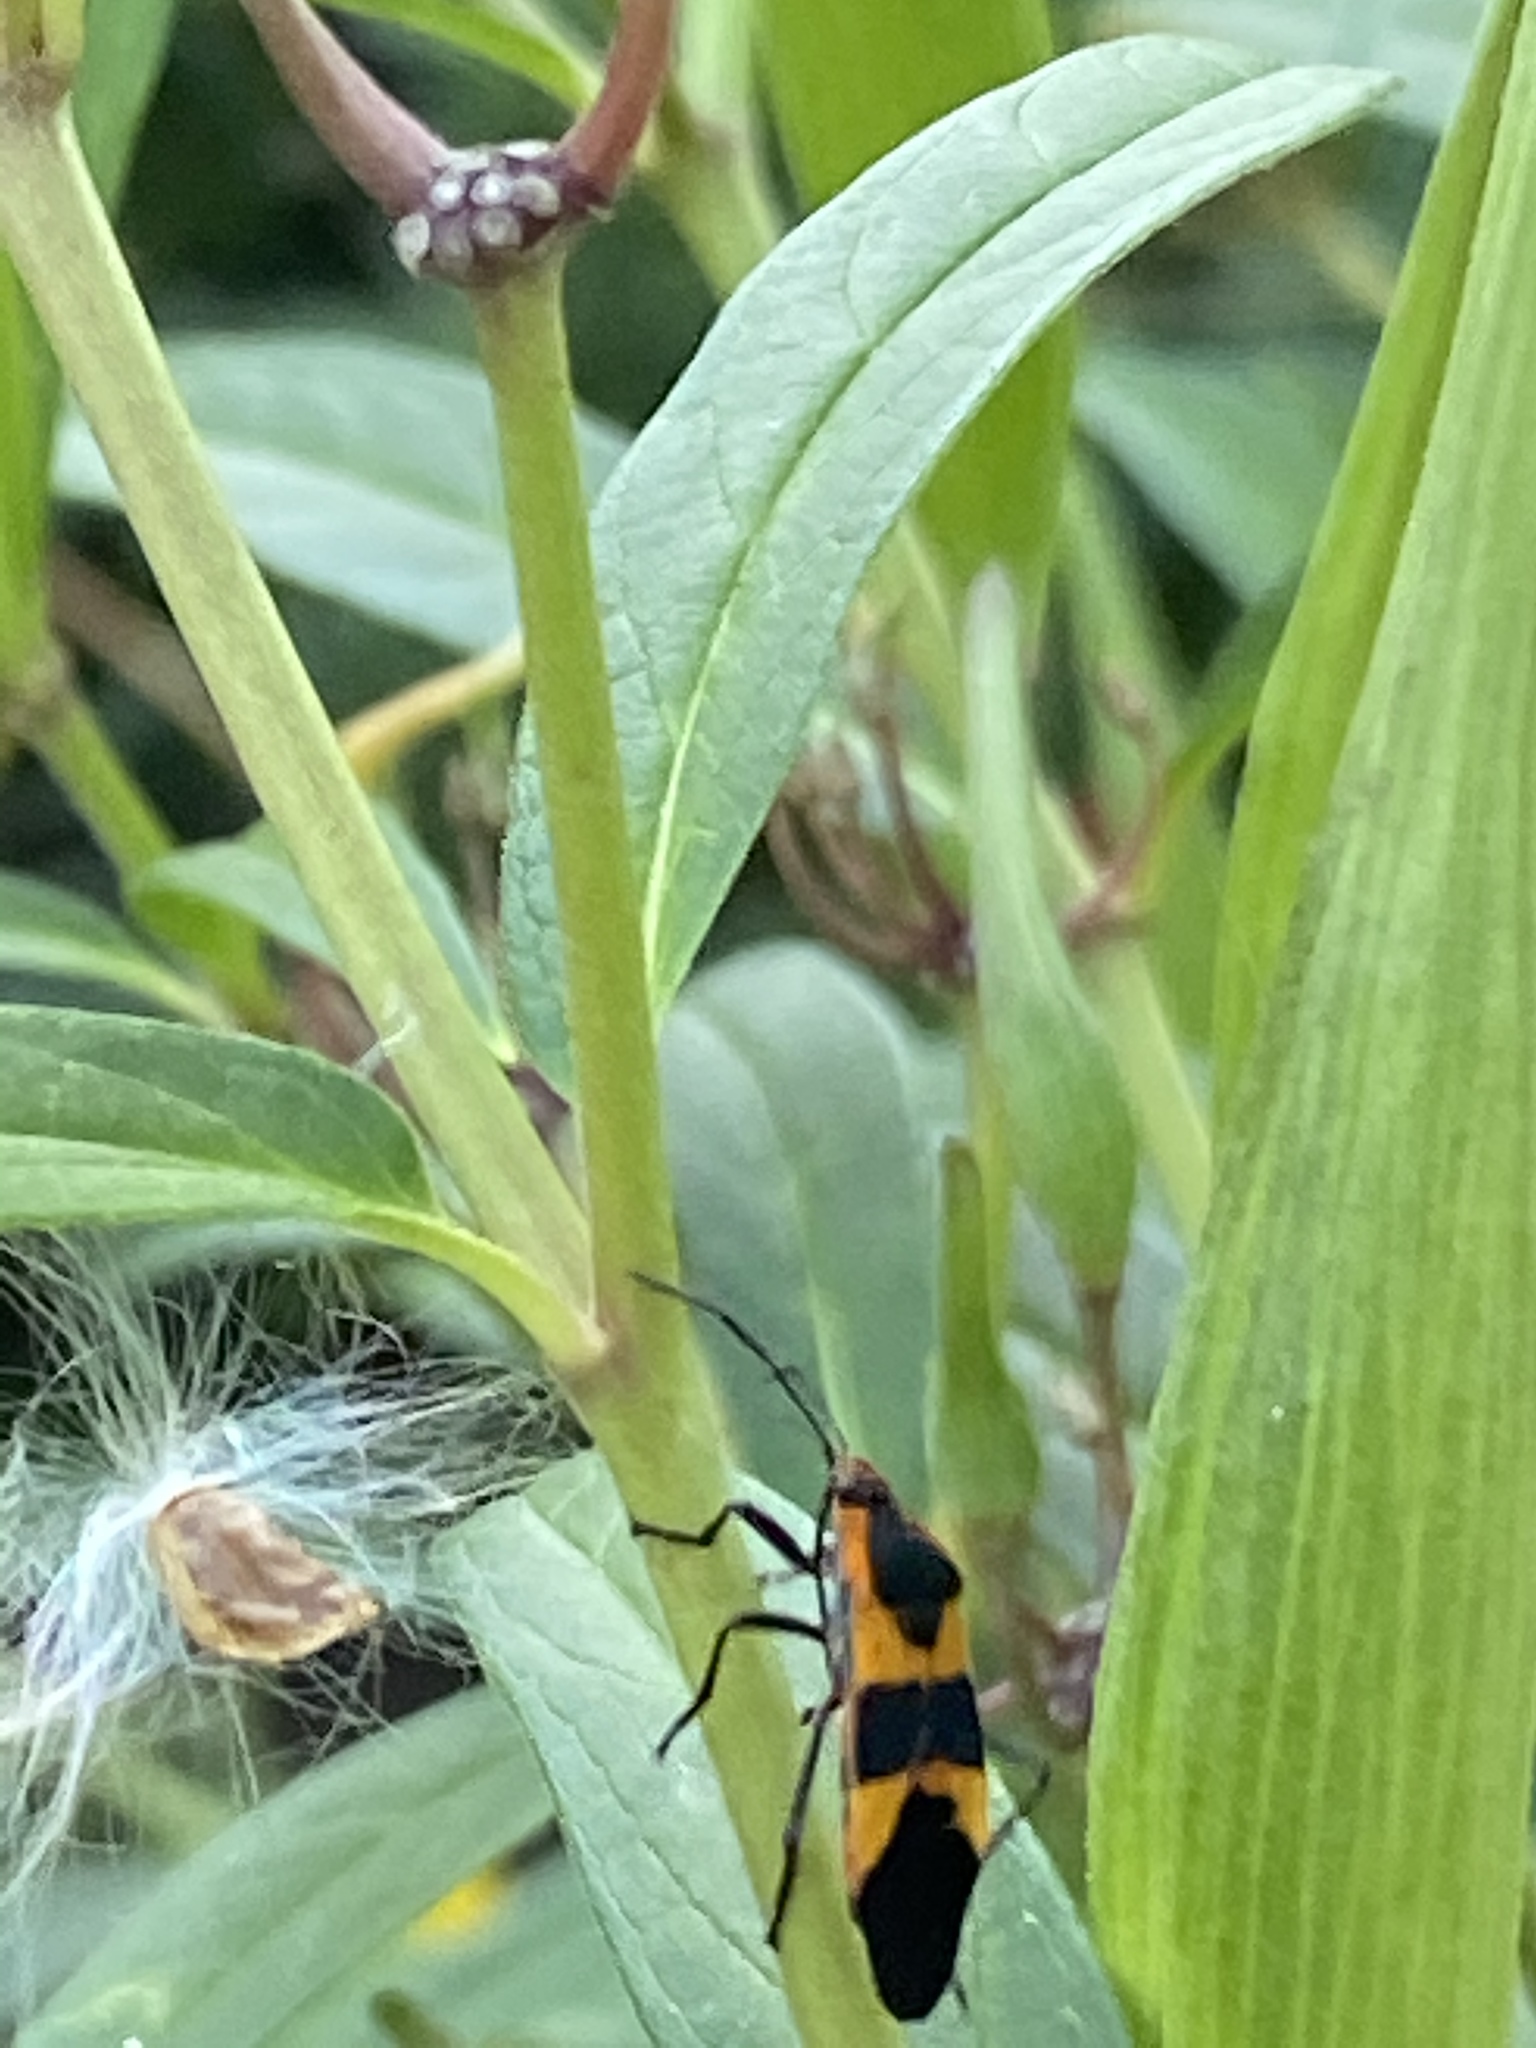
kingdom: Animalia
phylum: Arthropoda
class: Insecta
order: Hemiptera
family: Lygaeidae
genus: Oncopeltus
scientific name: Oncopeltus fasciatus
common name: Large milkweed bug
